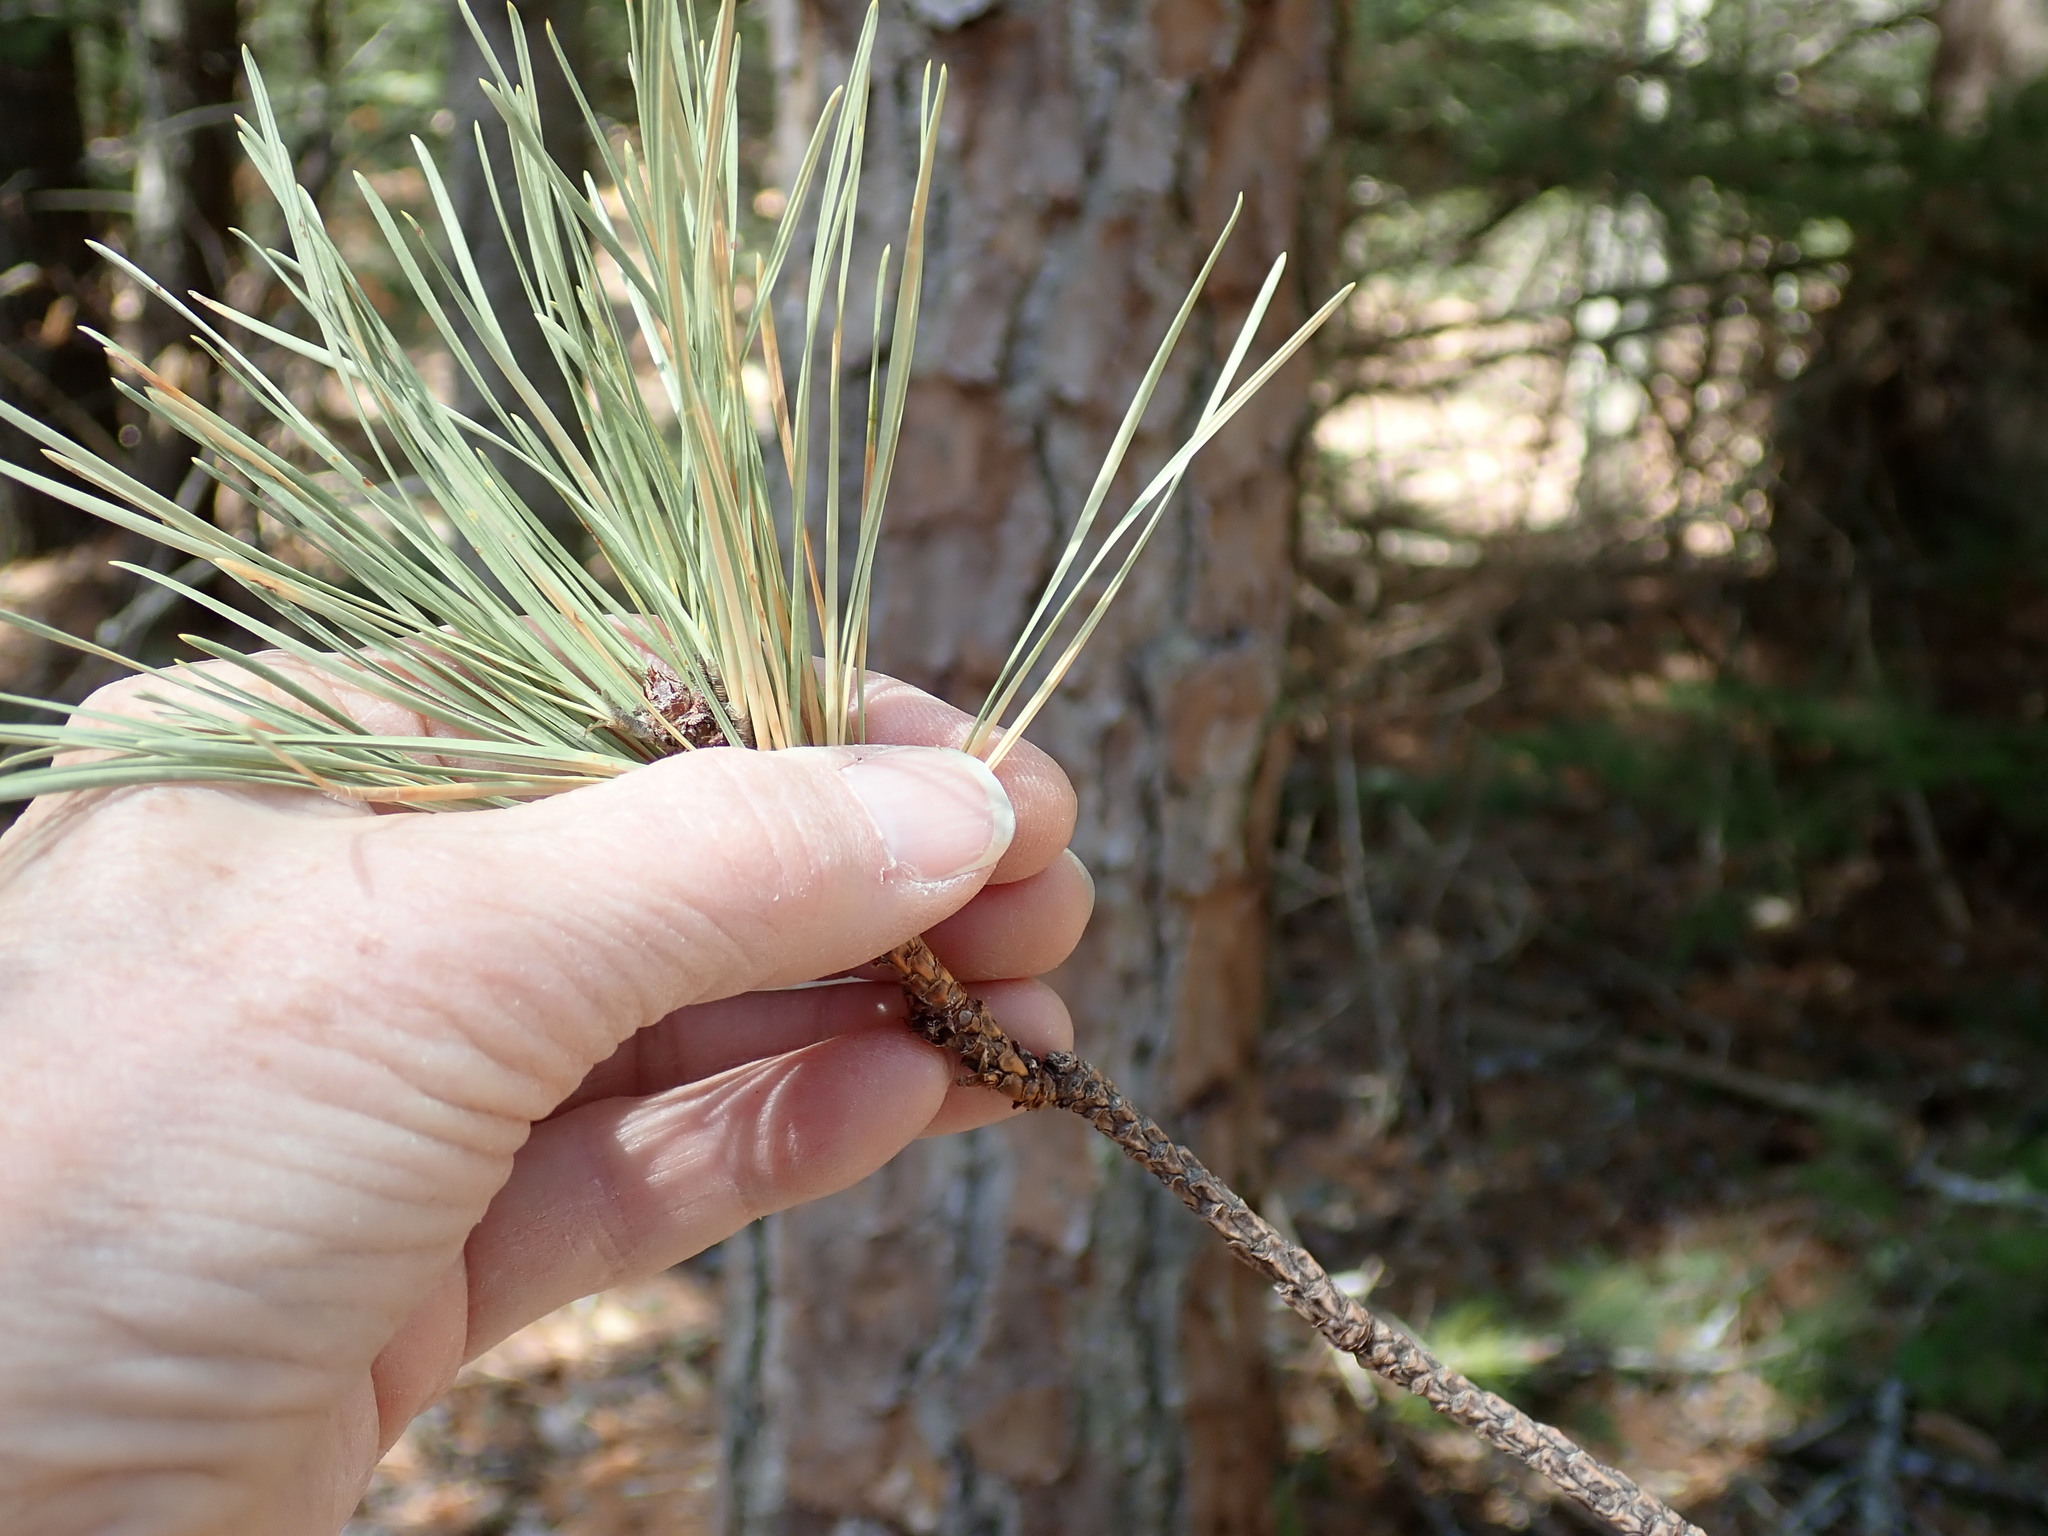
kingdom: Plantae
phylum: Tracheophyta
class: Pinopsida
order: Pinales
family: Pinaceae
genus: Pinus
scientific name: Pinus rigida
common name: Pitch pine
